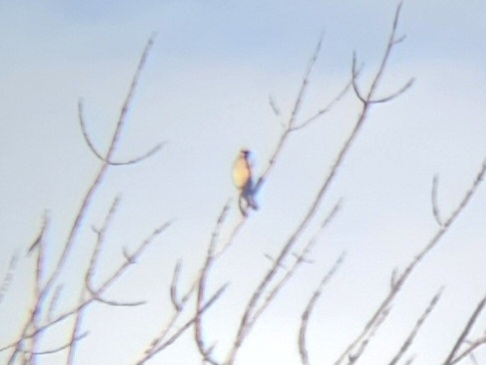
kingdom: Animalia
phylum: Chordata
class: Aves
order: Passeriformes
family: Bombycillidae
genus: Bombycilla
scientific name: Bombycilla cedrorum
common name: Cedar waxwing
